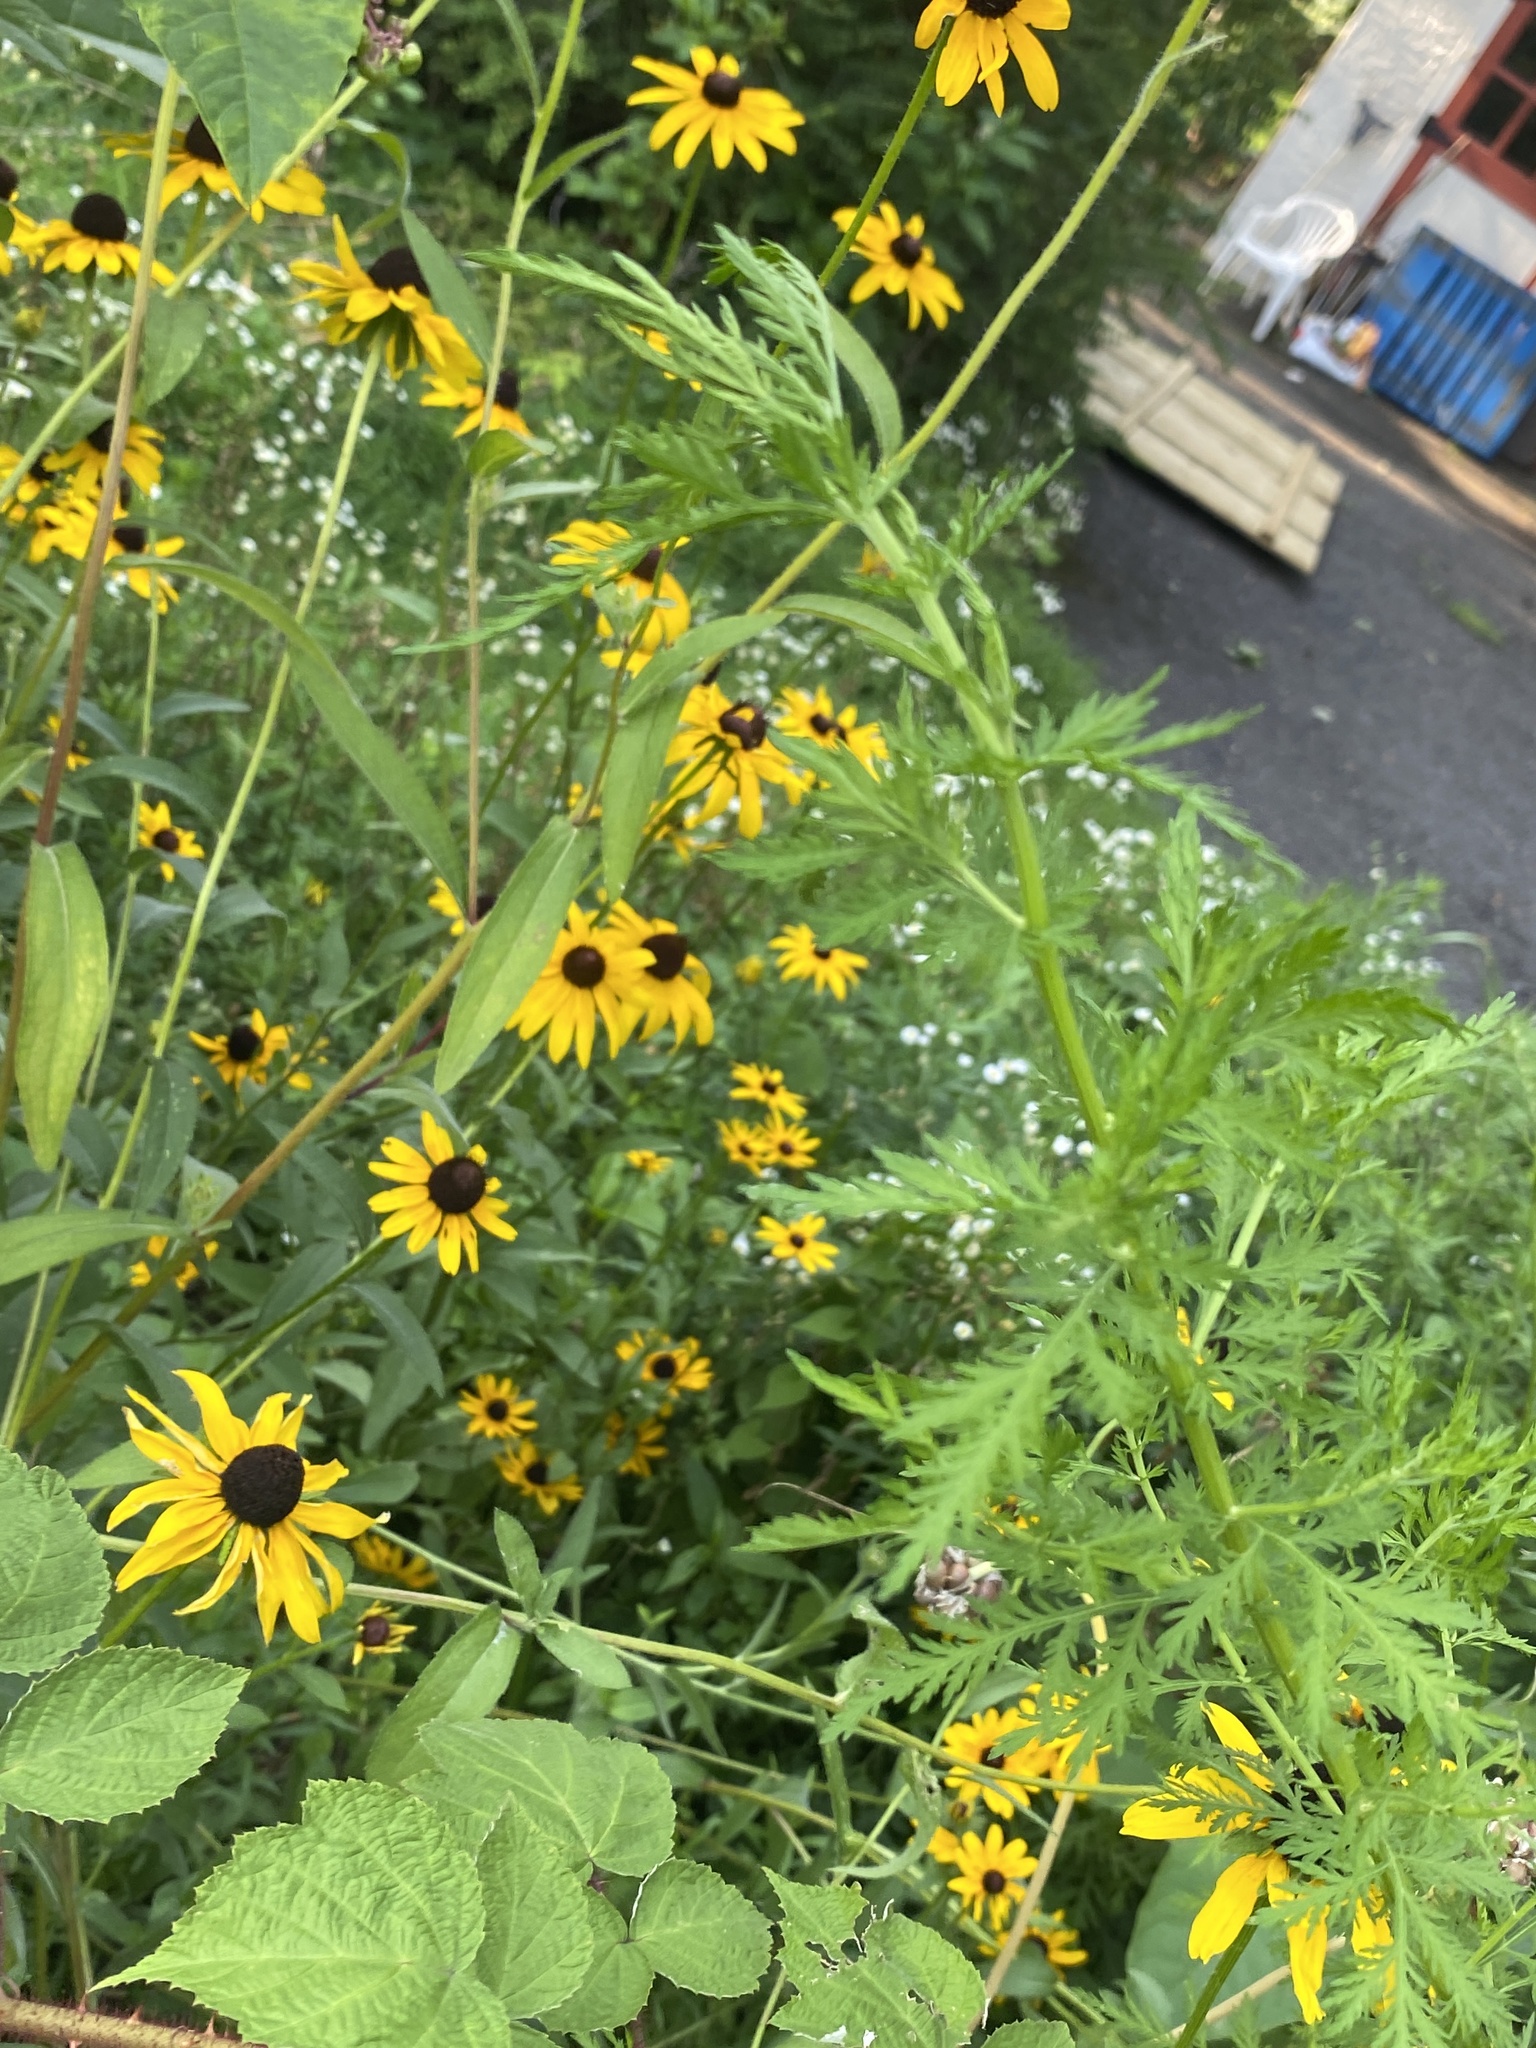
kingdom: Plantae
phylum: Tracheophyta
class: Magnoliopsida
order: Asterales
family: Asteraceae
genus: Artemisia
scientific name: Artemisia annua
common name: Sweet sagewort
